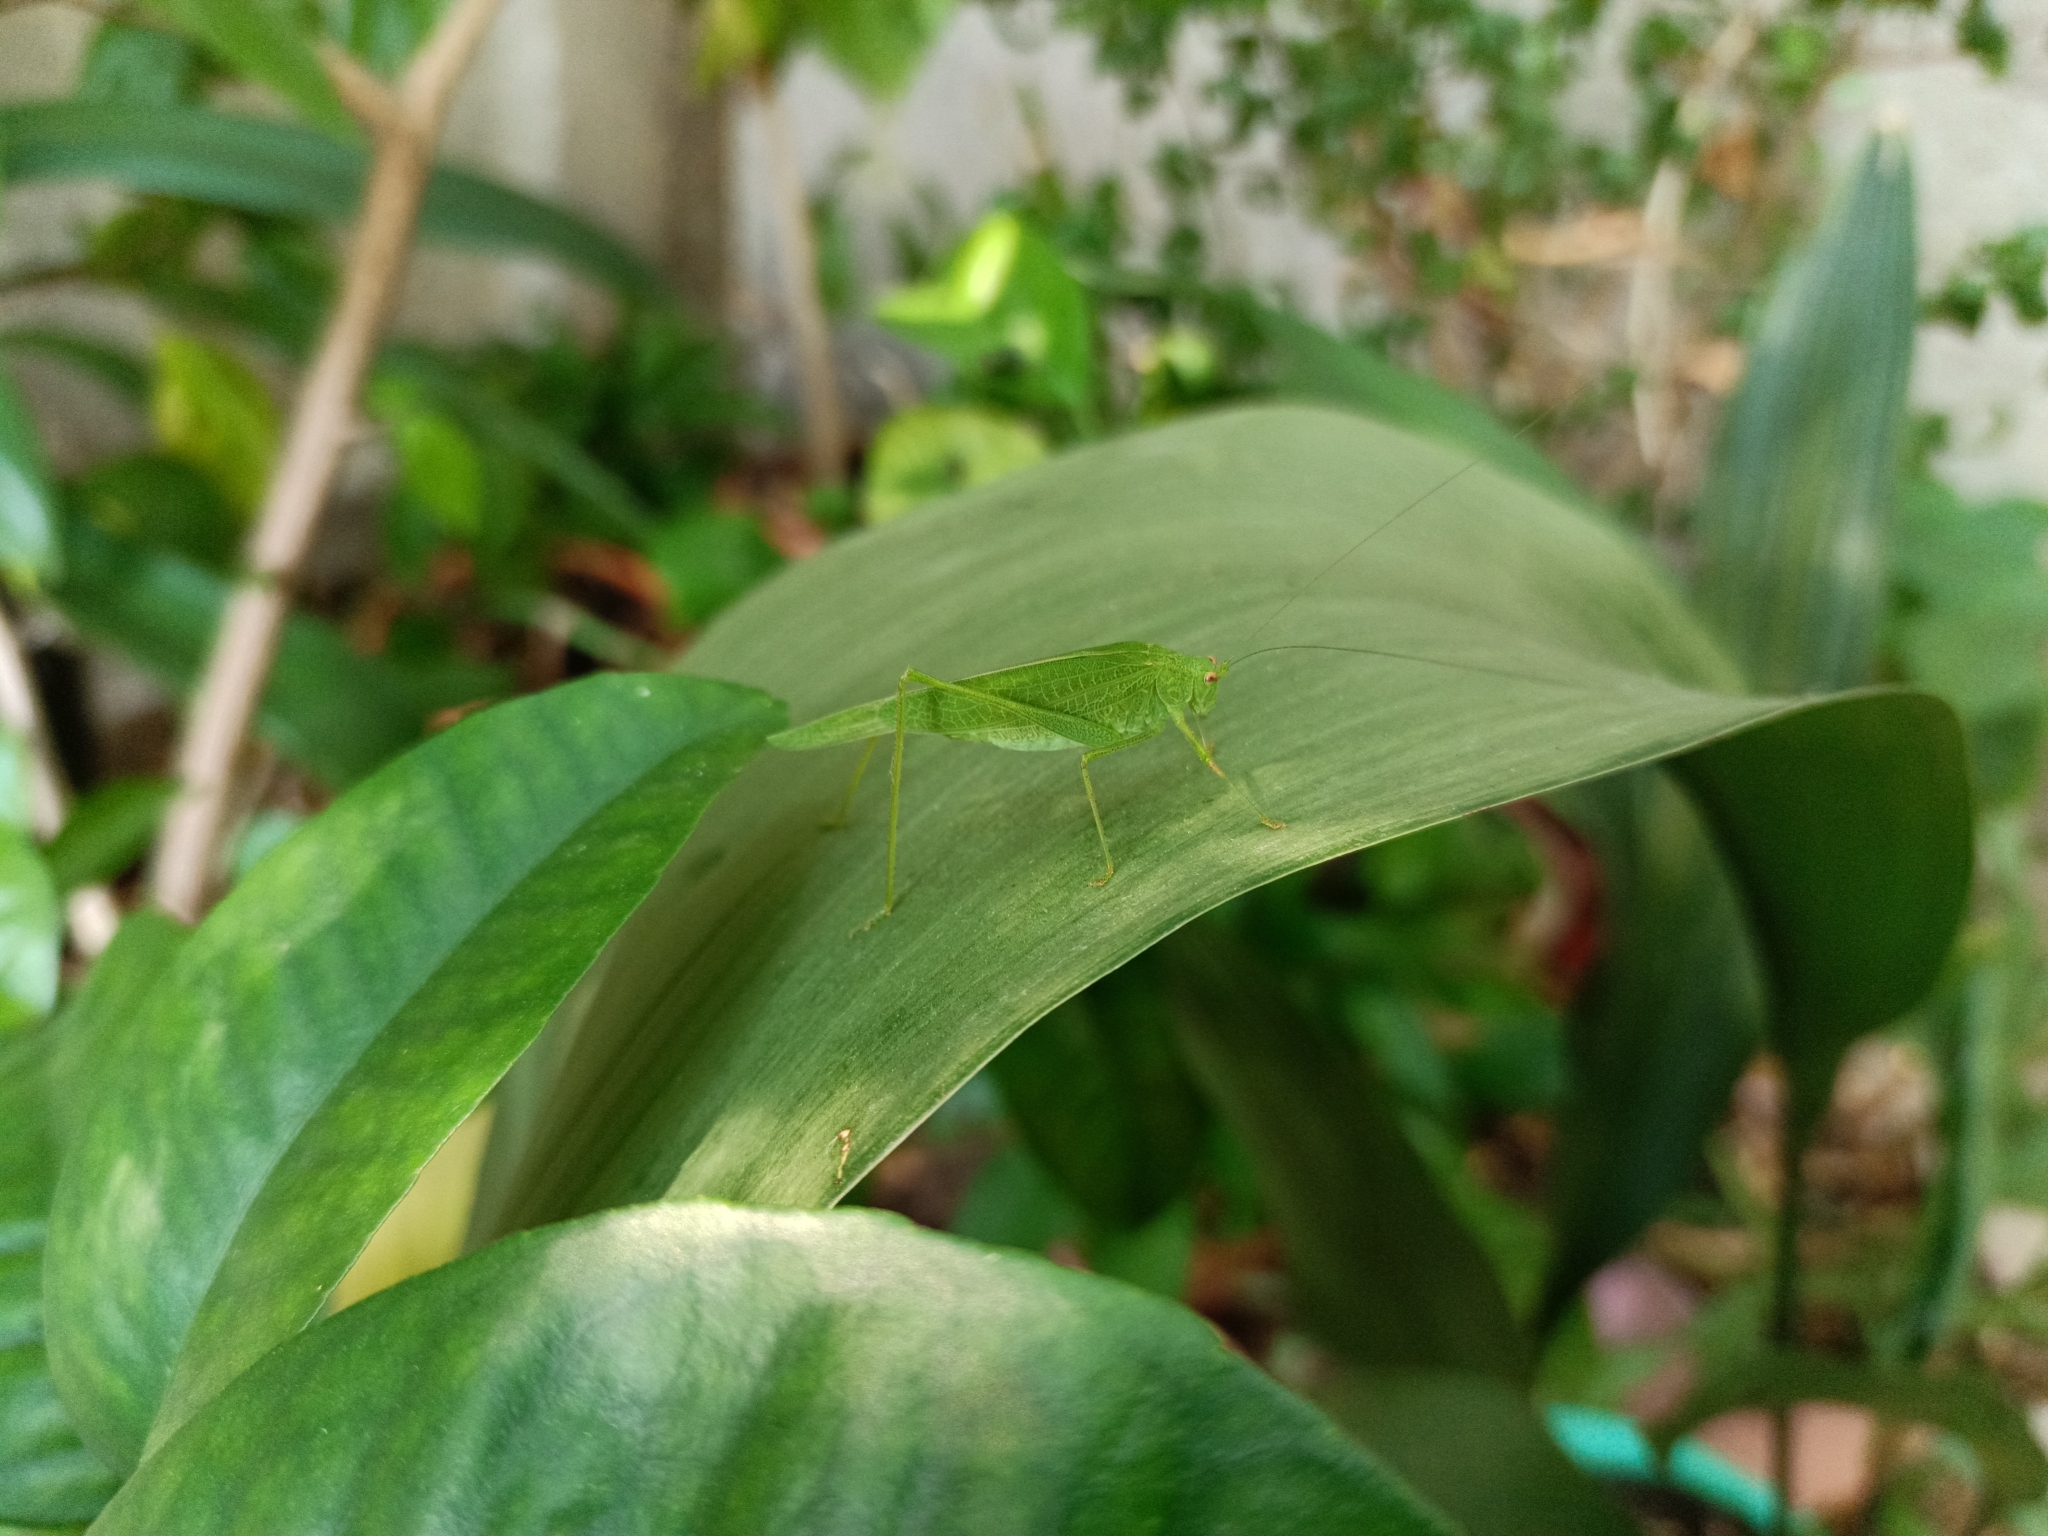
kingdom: Animalia
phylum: Arthropoda
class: Insecta
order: Orthoptera
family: Tettigoniidae
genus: Phaneroptera
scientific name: Phaneroptera nana
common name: Southern sickle bush-cricket
